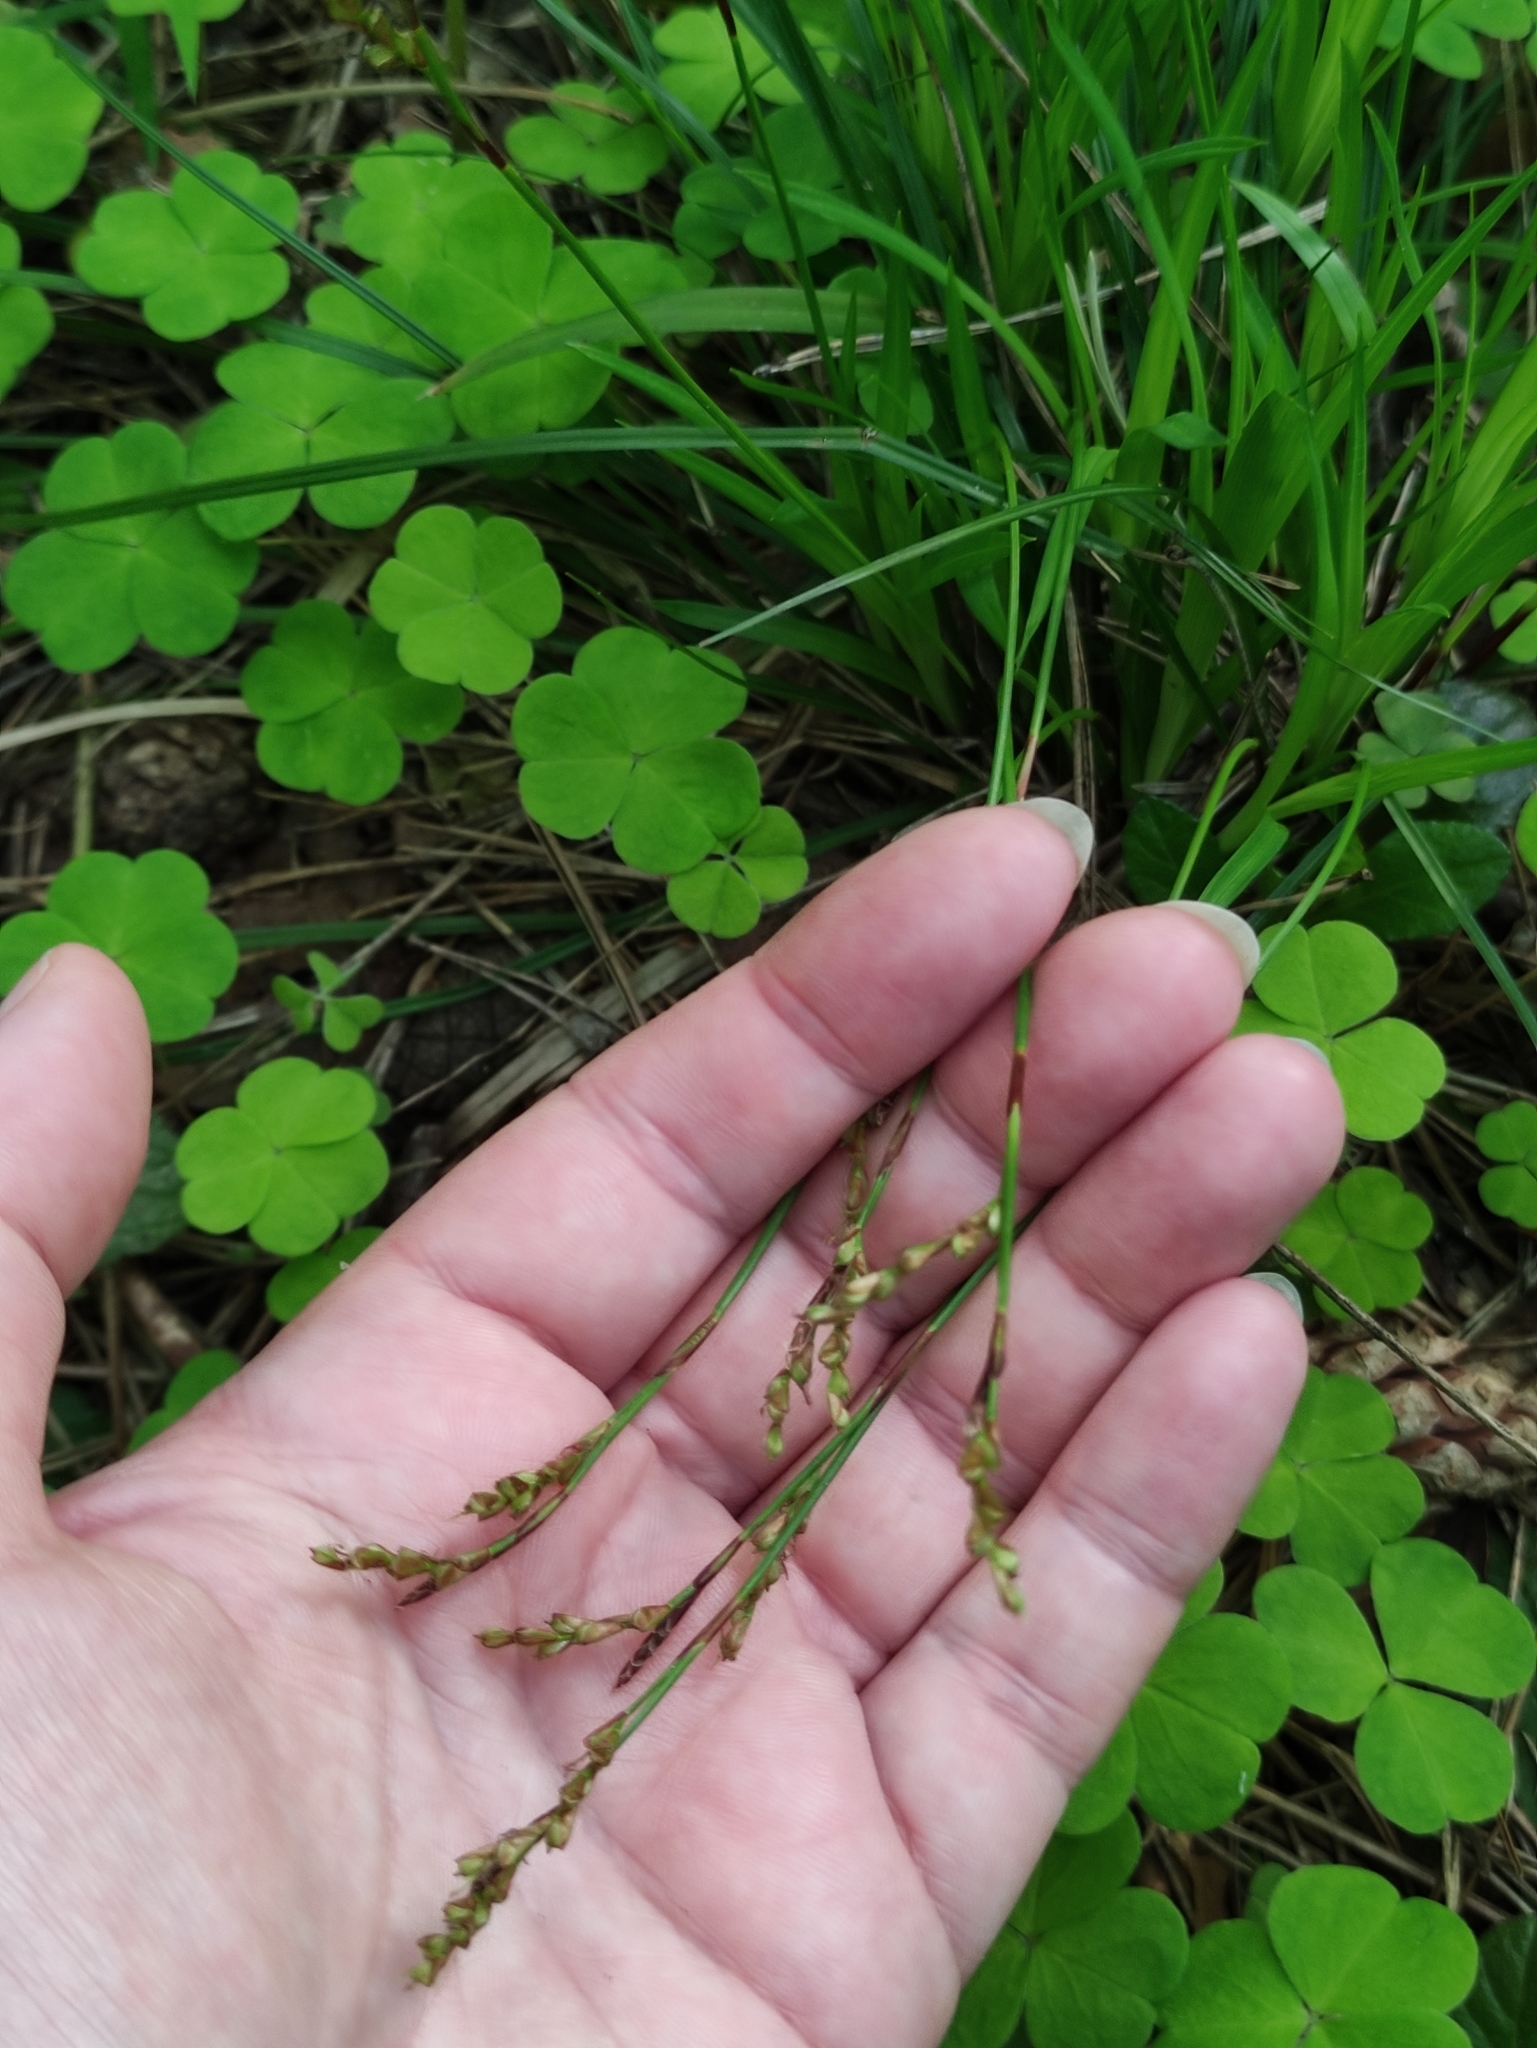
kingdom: Plantae
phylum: Tracheophyta
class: Liliopsida
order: Poales
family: Cyperaceae
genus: Carex
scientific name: Carex digitata
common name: Fingered sedge
